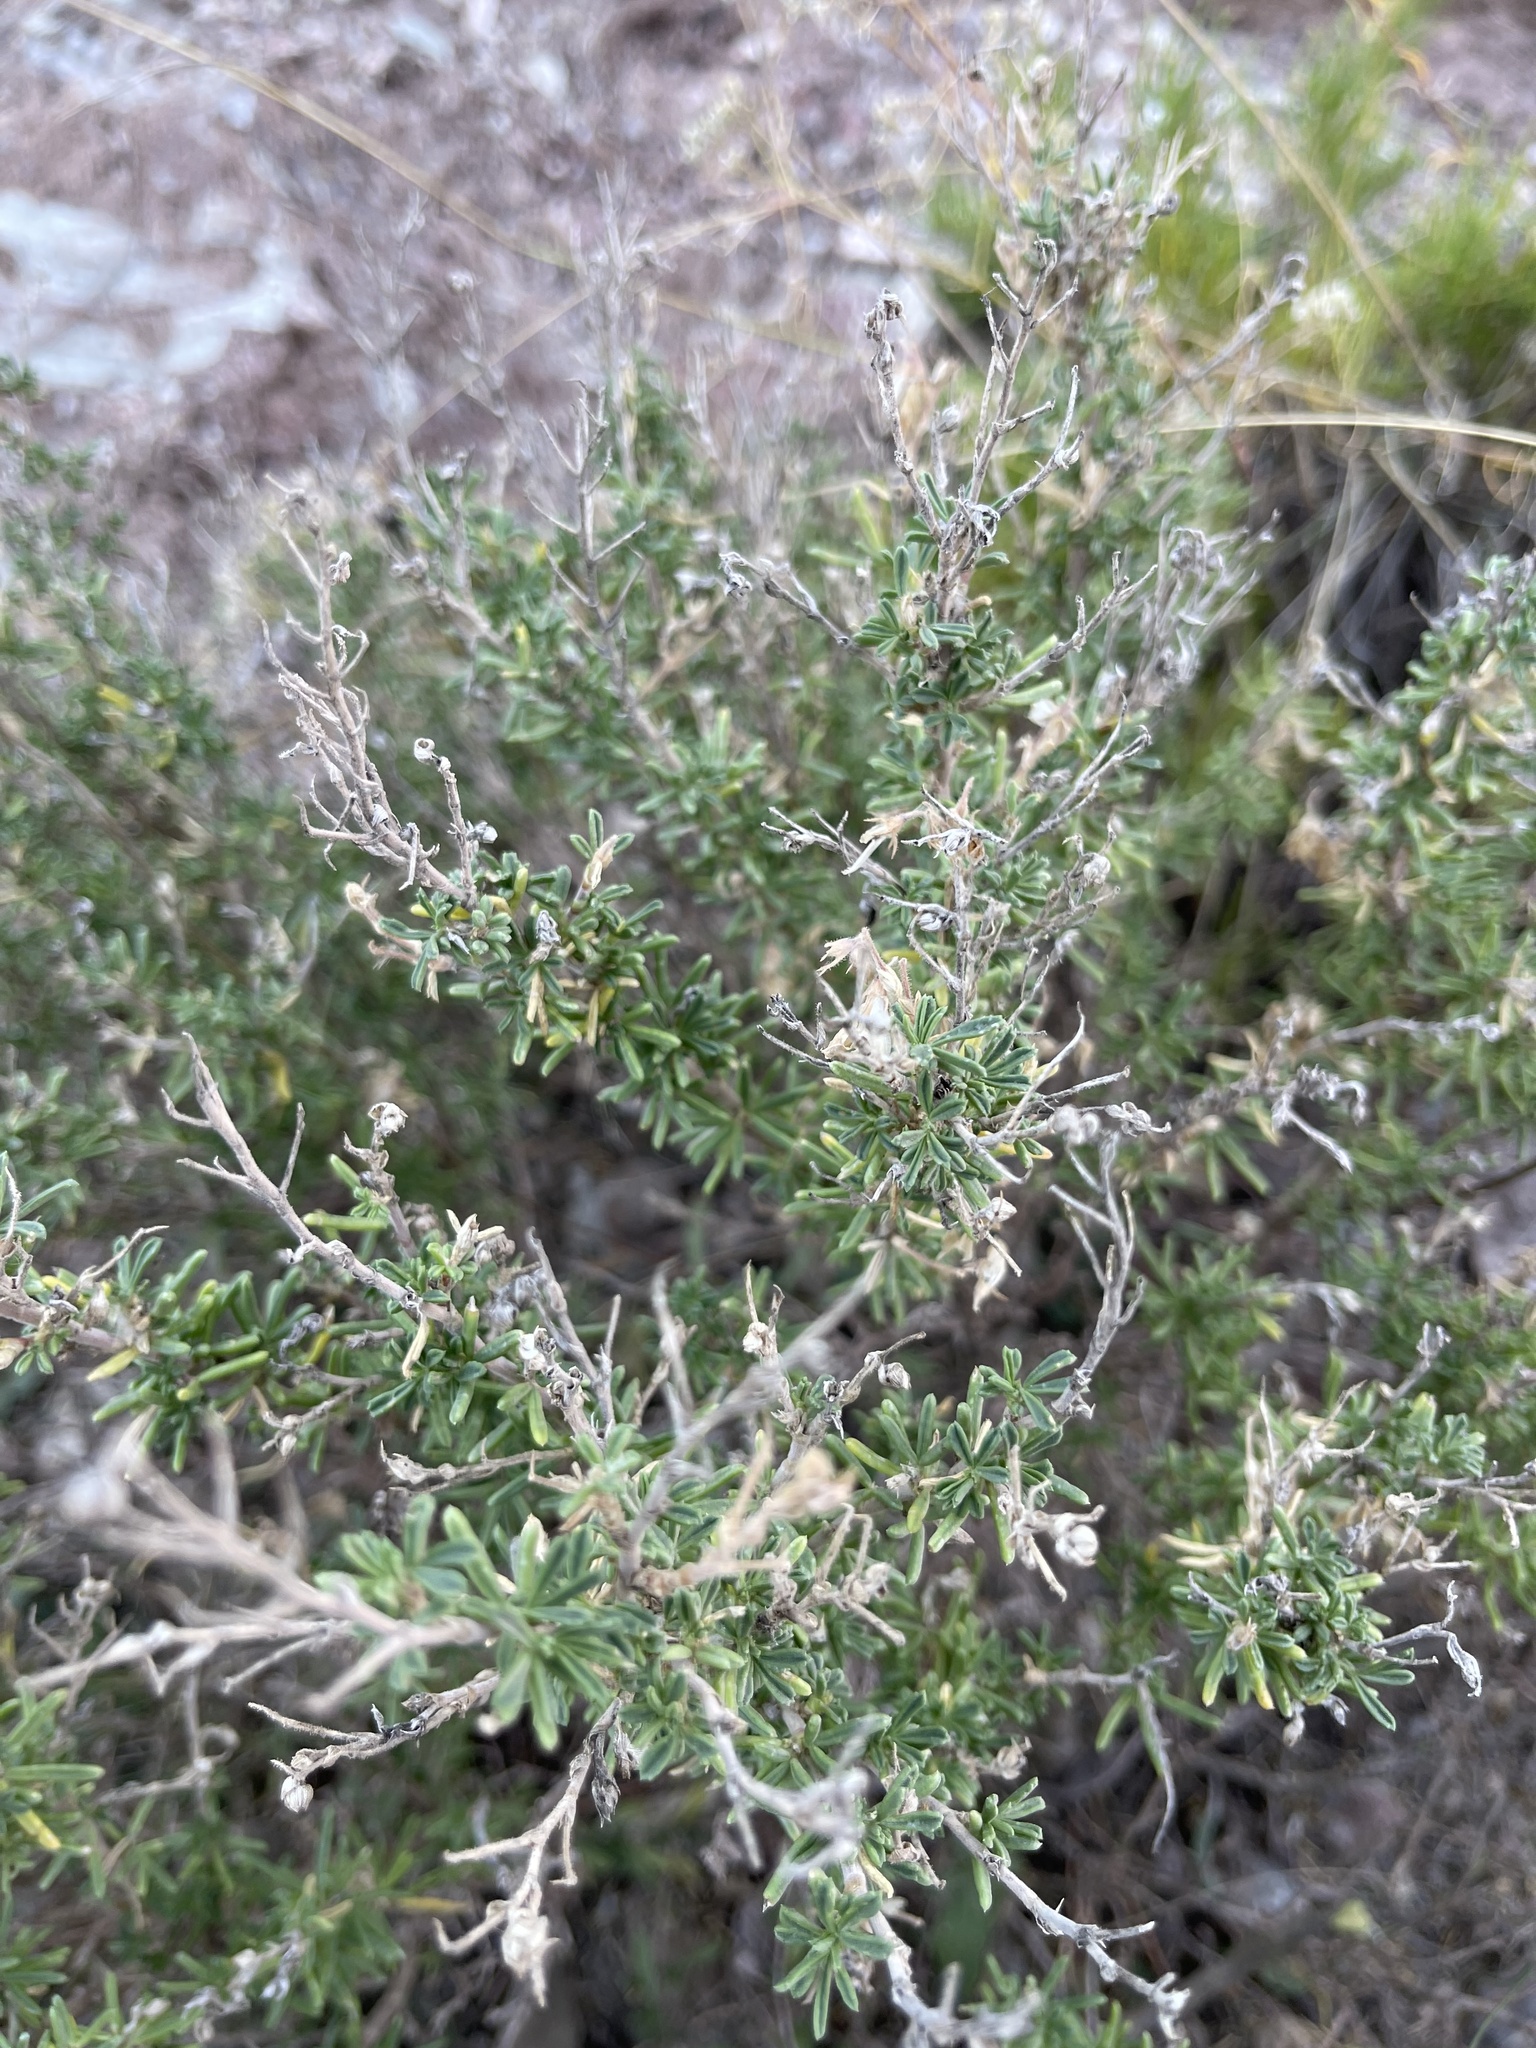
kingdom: Plantae
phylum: Tracheophyta
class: Magnoliopsida
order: Fabales
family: Fabaceae
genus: Ononis
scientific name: Ononis tridentata
